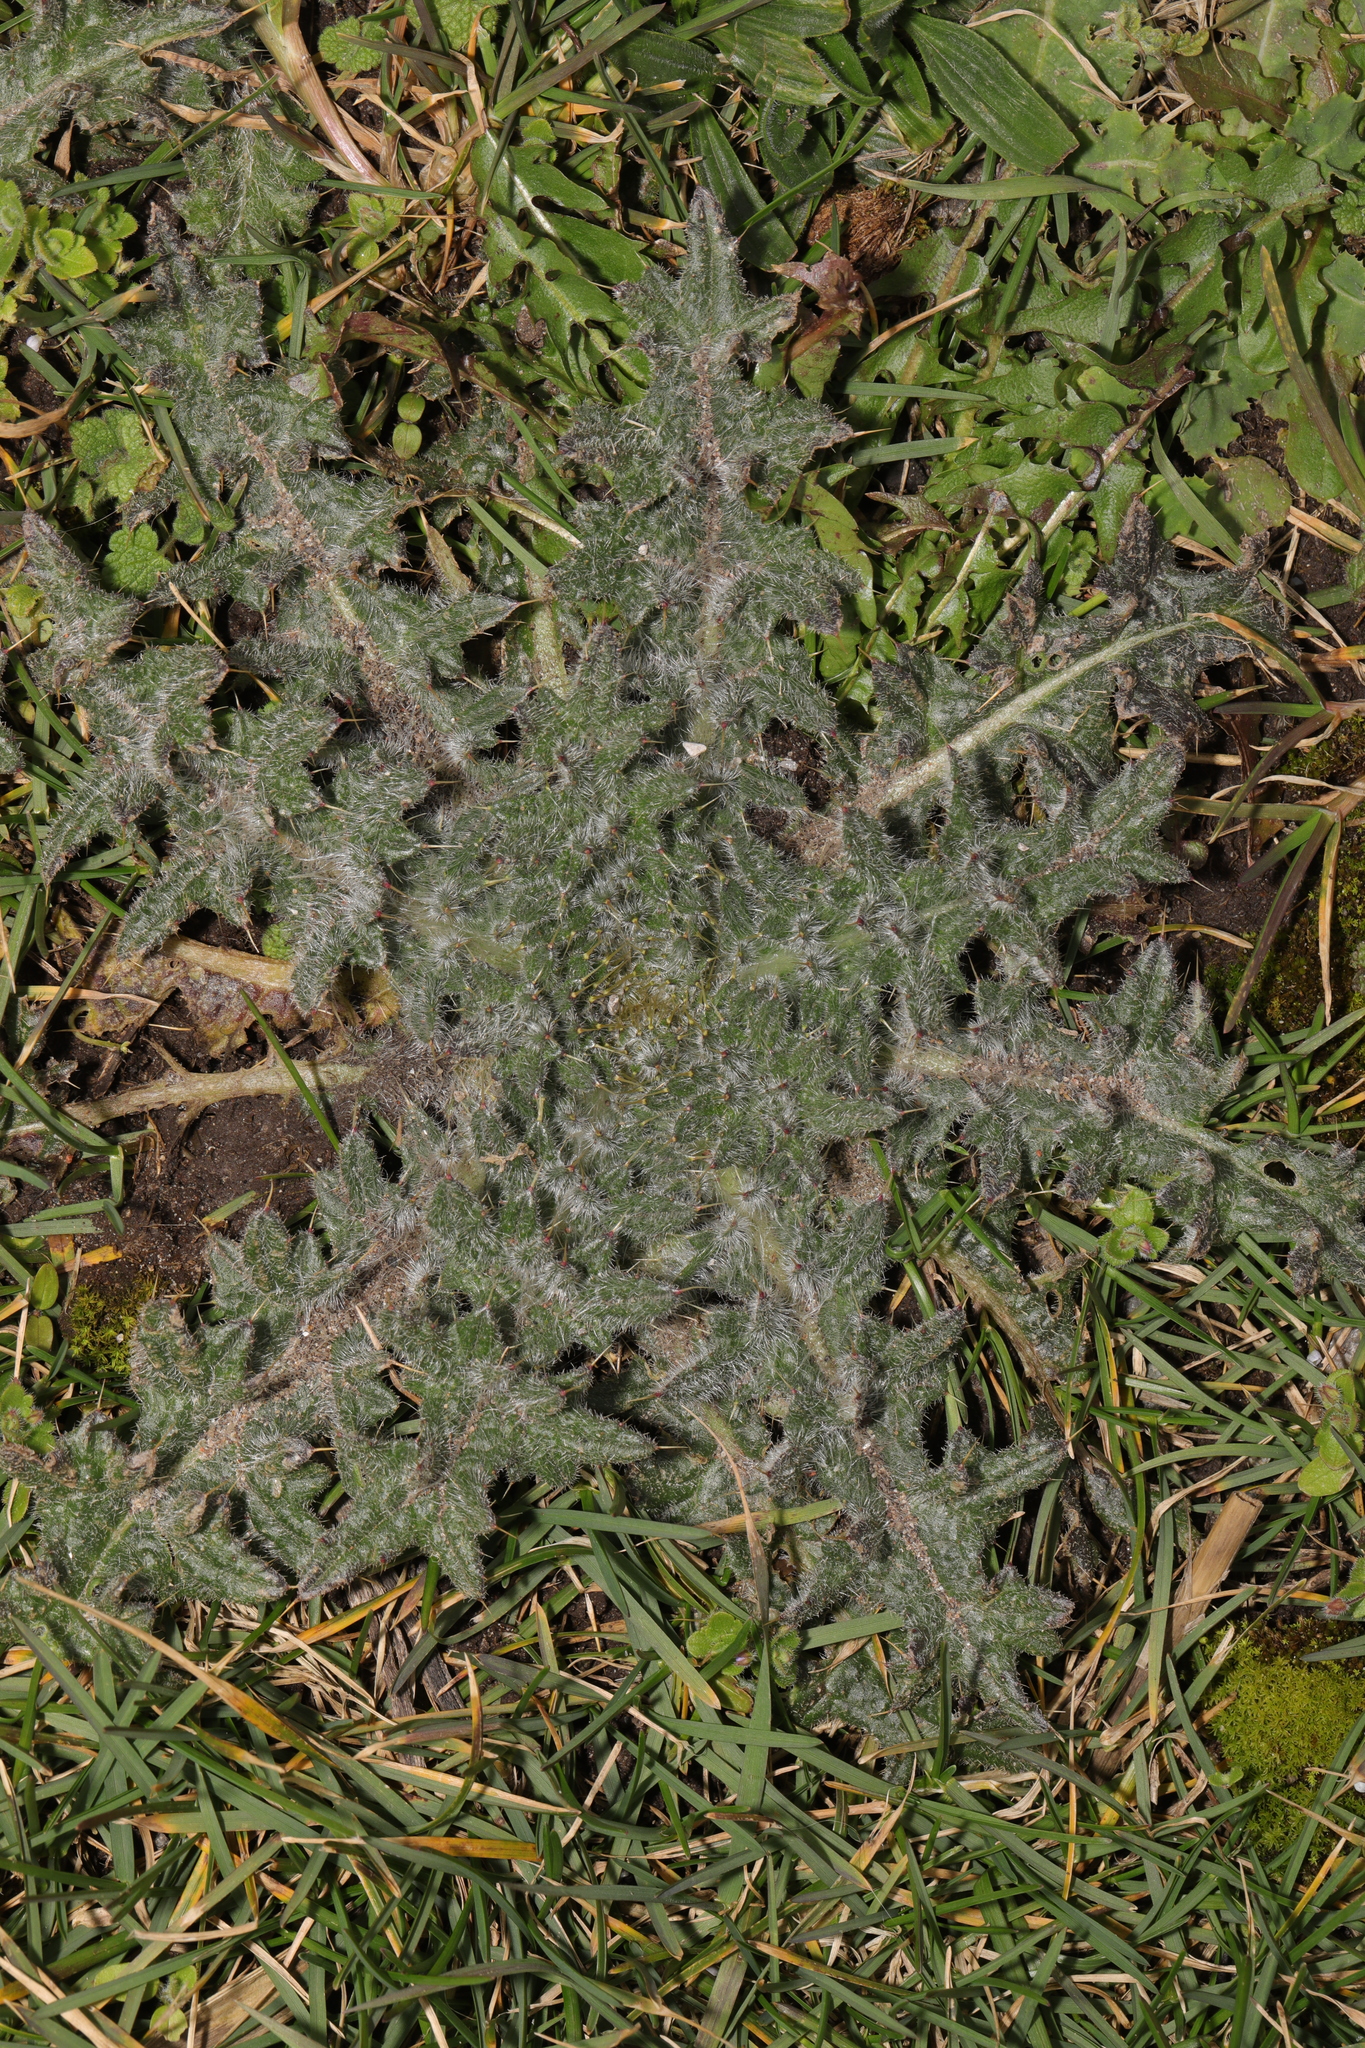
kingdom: Plantae
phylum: Tracheophyta
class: Magnoliopsida
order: Asterales
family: Asteraceae
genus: Cirsium
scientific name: Cirsium vulgare
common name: Bull thistle
